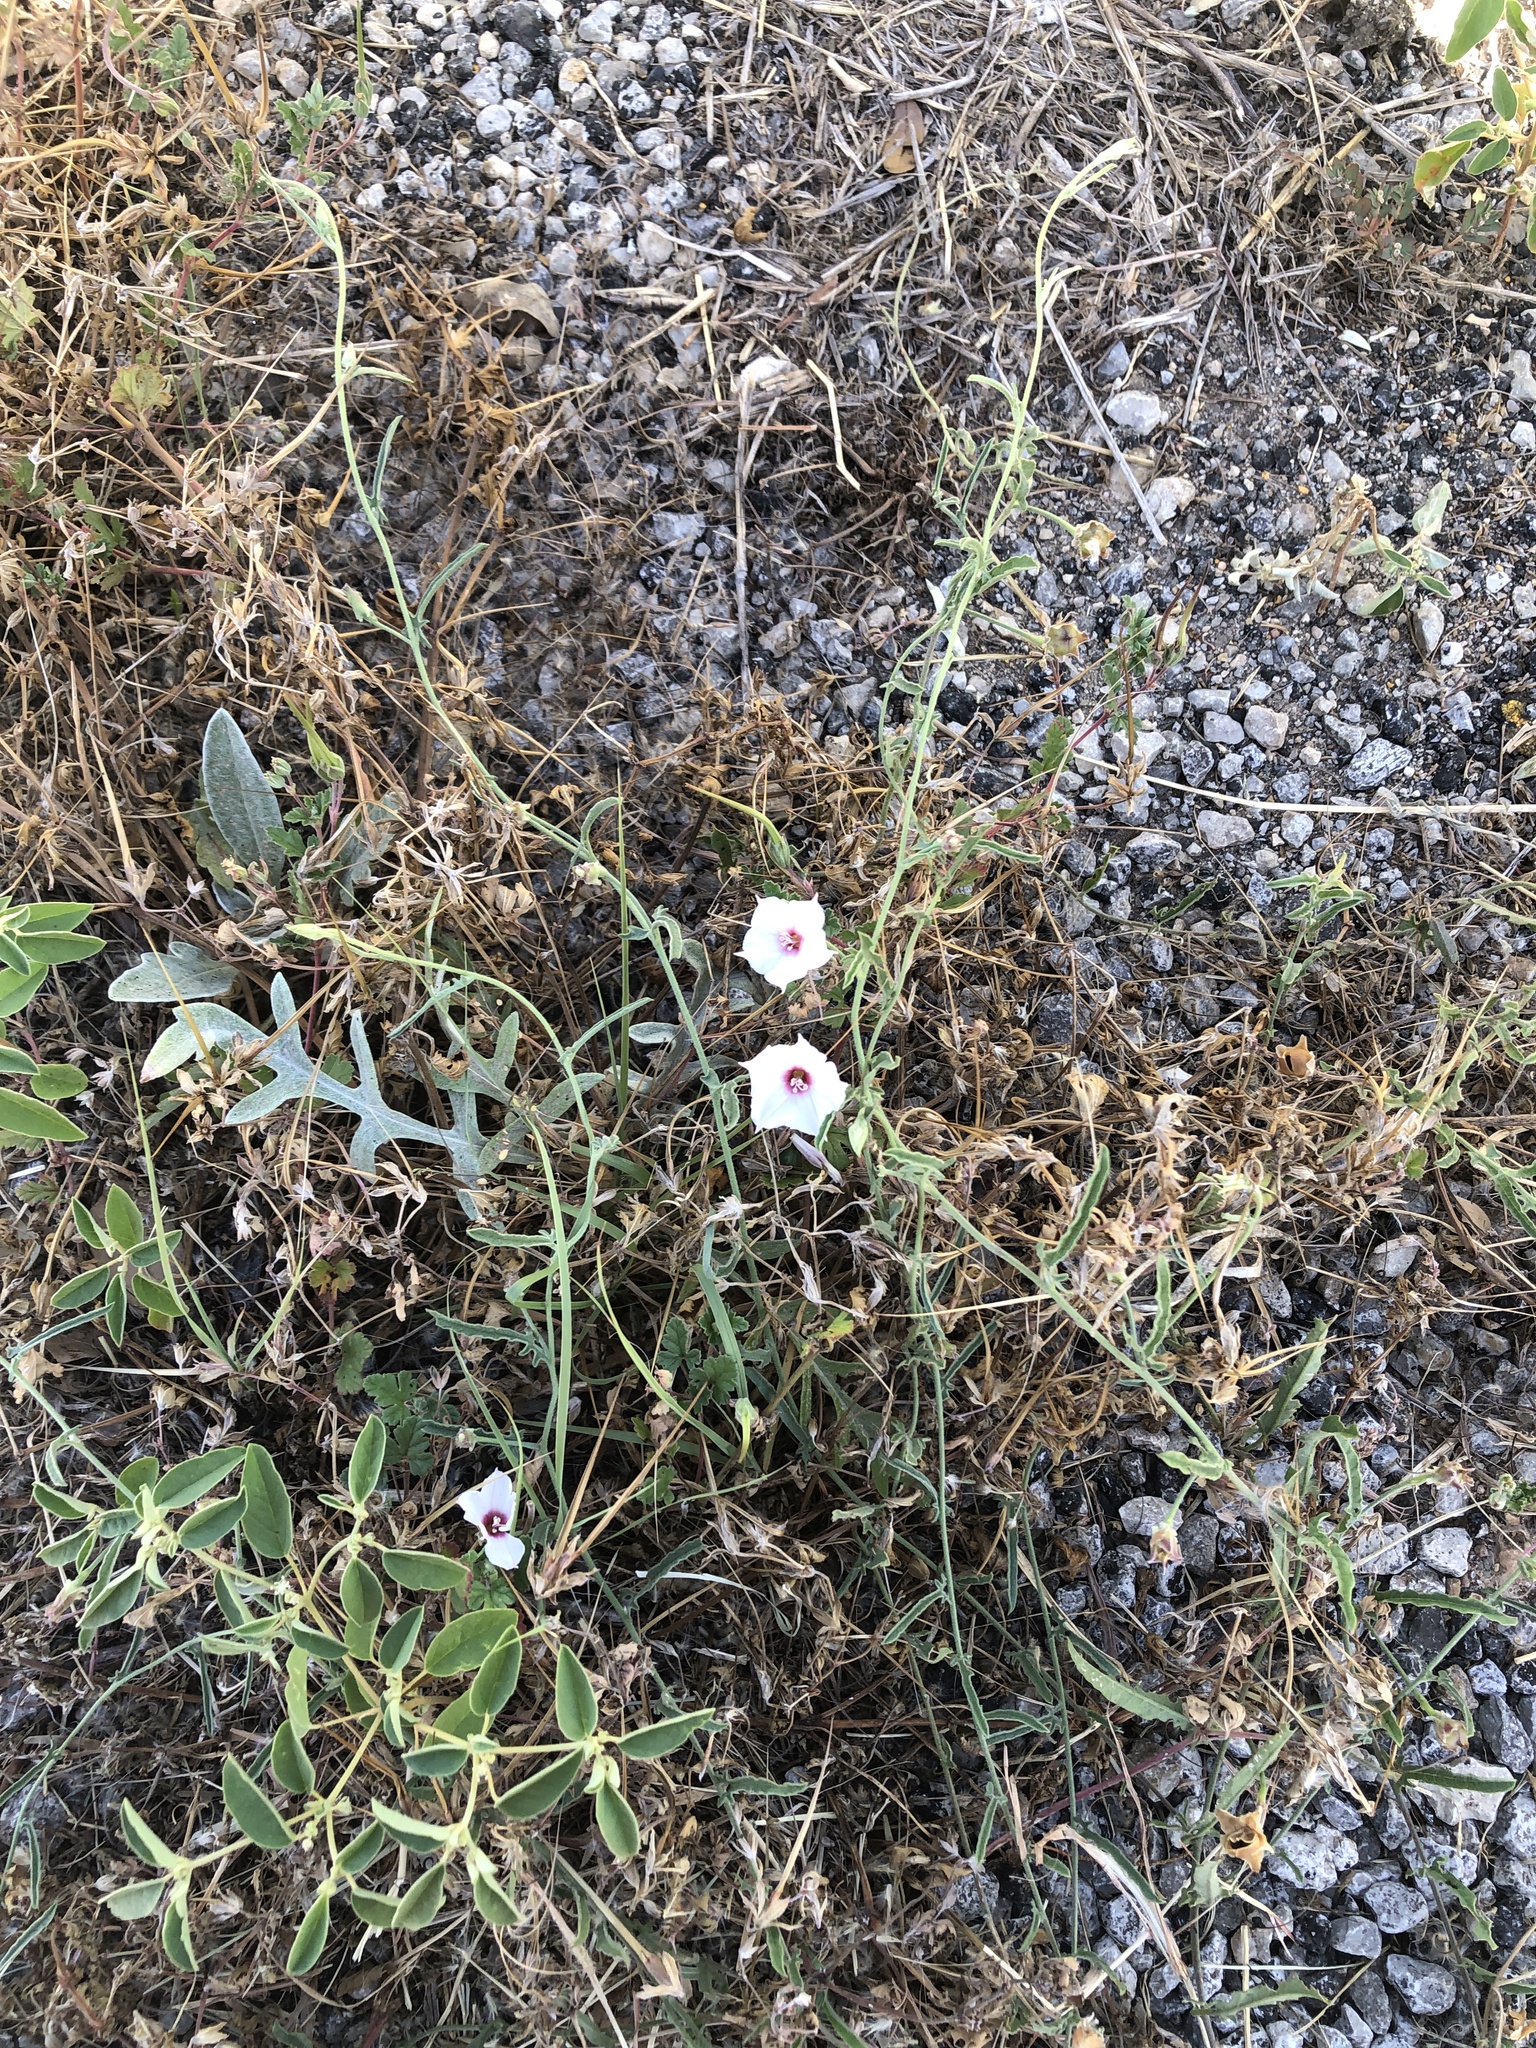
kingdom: Plantae
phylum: Tracheophyta
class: Magnoliopsida
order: Solanales
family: Convolvulaceae
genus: Convolvulus
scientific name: Convolvulus equitans
